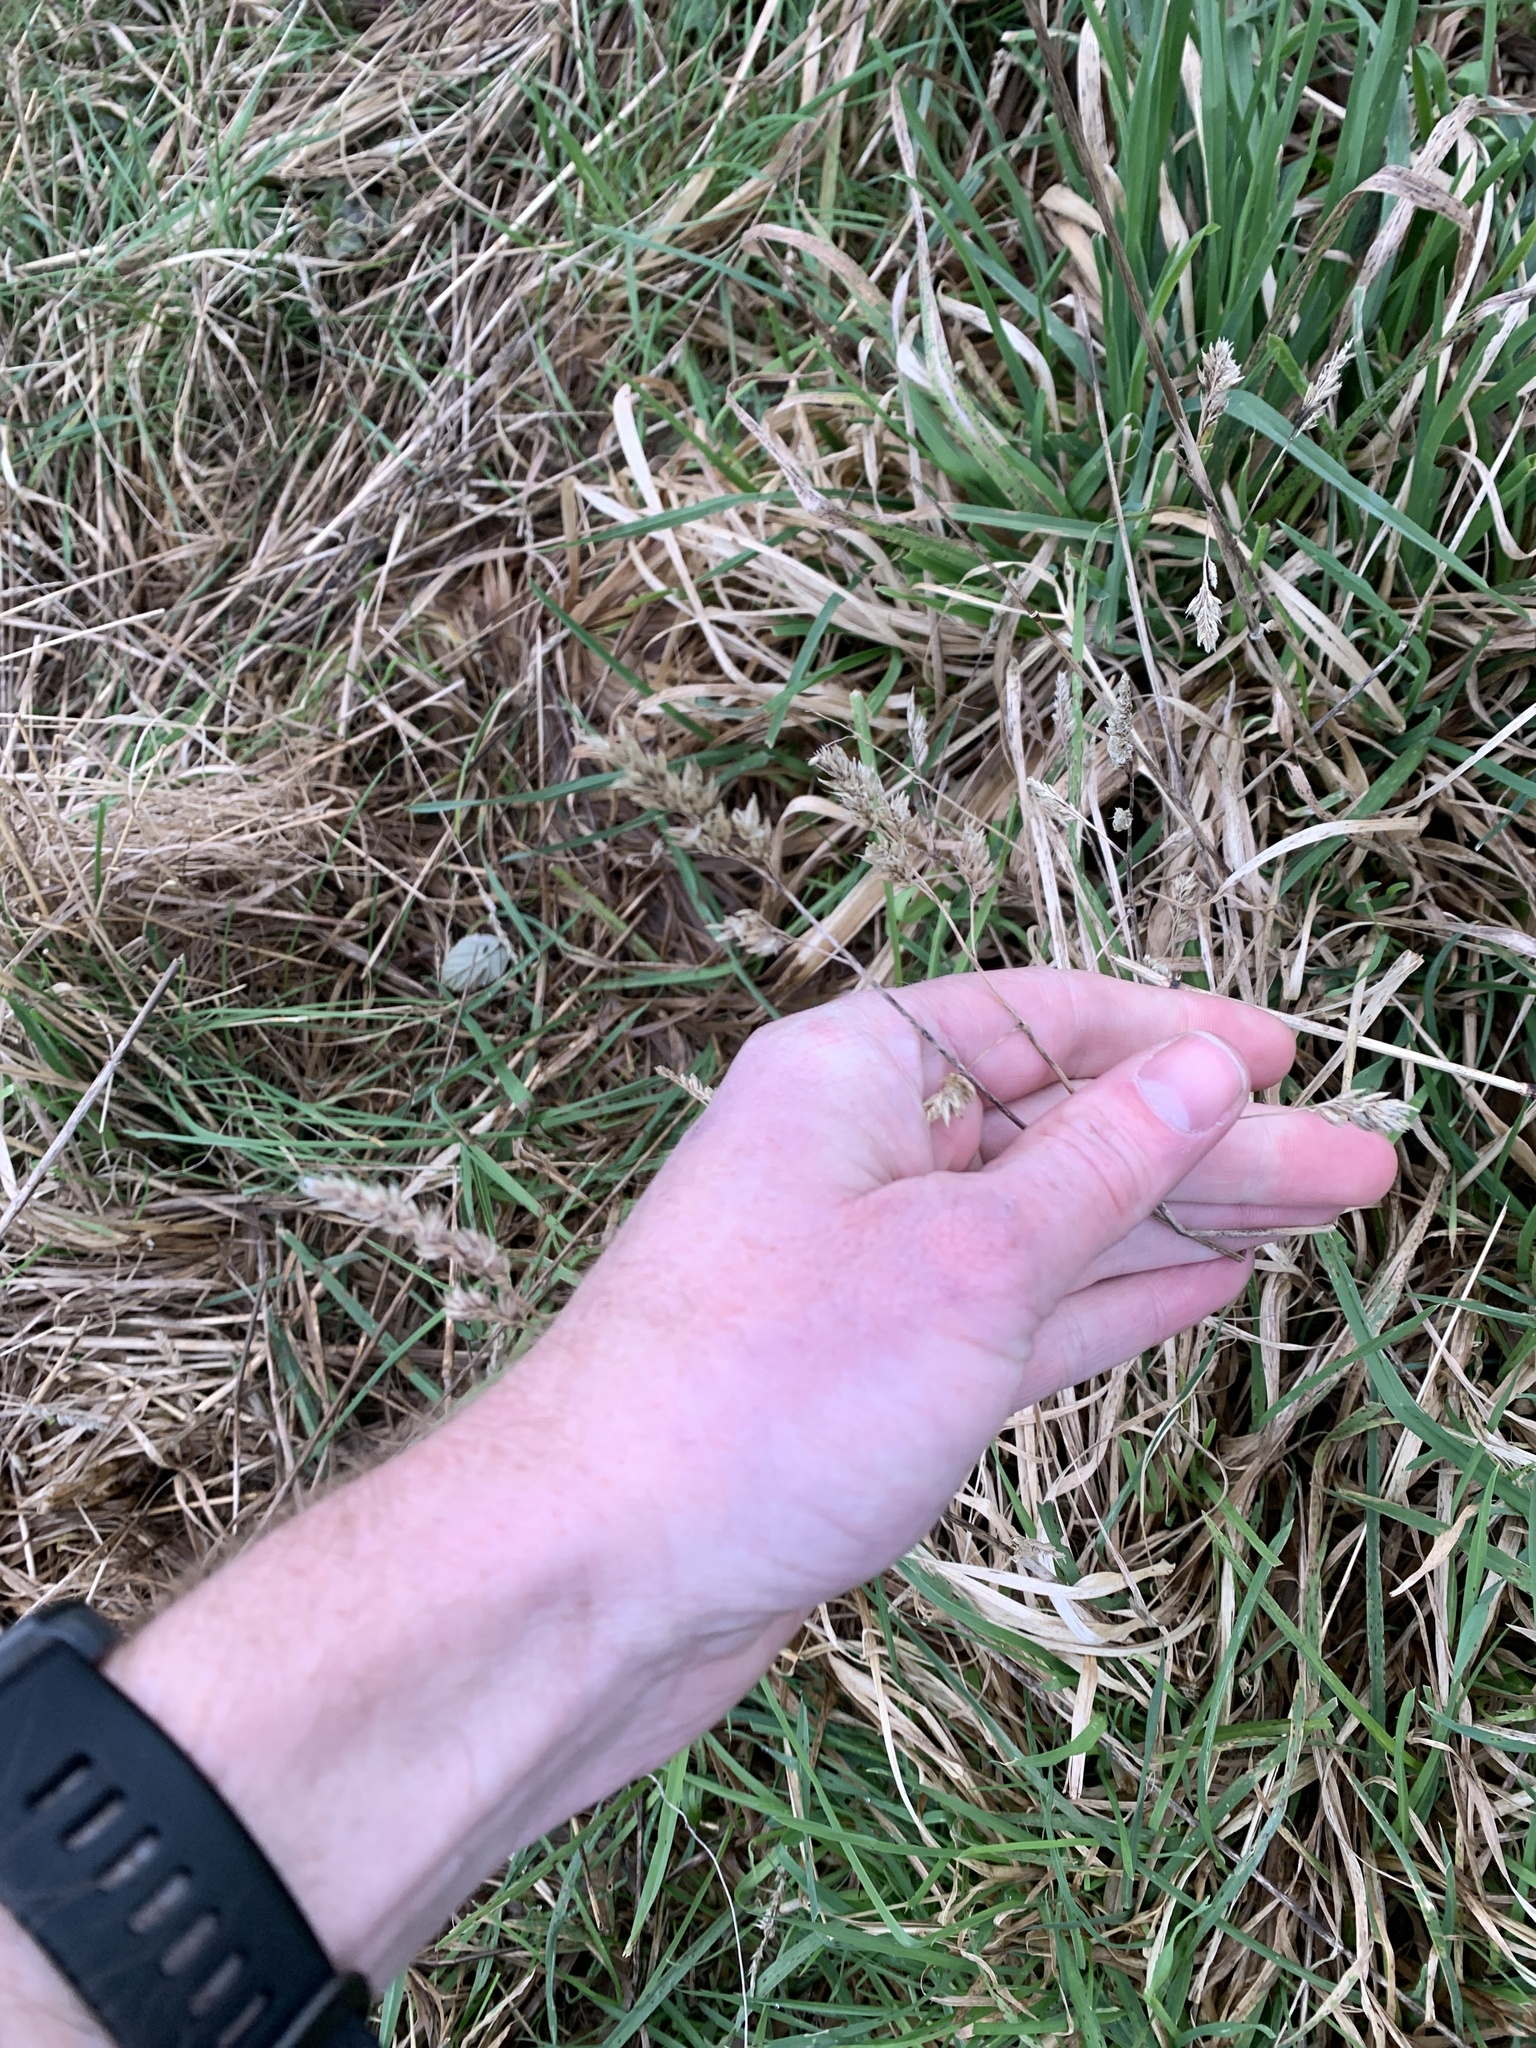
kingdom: Plantae
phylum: Tracheophyta
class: Liliopsida
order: Poales
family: Poaceae
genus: Dactylis
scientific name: Dactylis glomerata
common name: Orchardgrass
